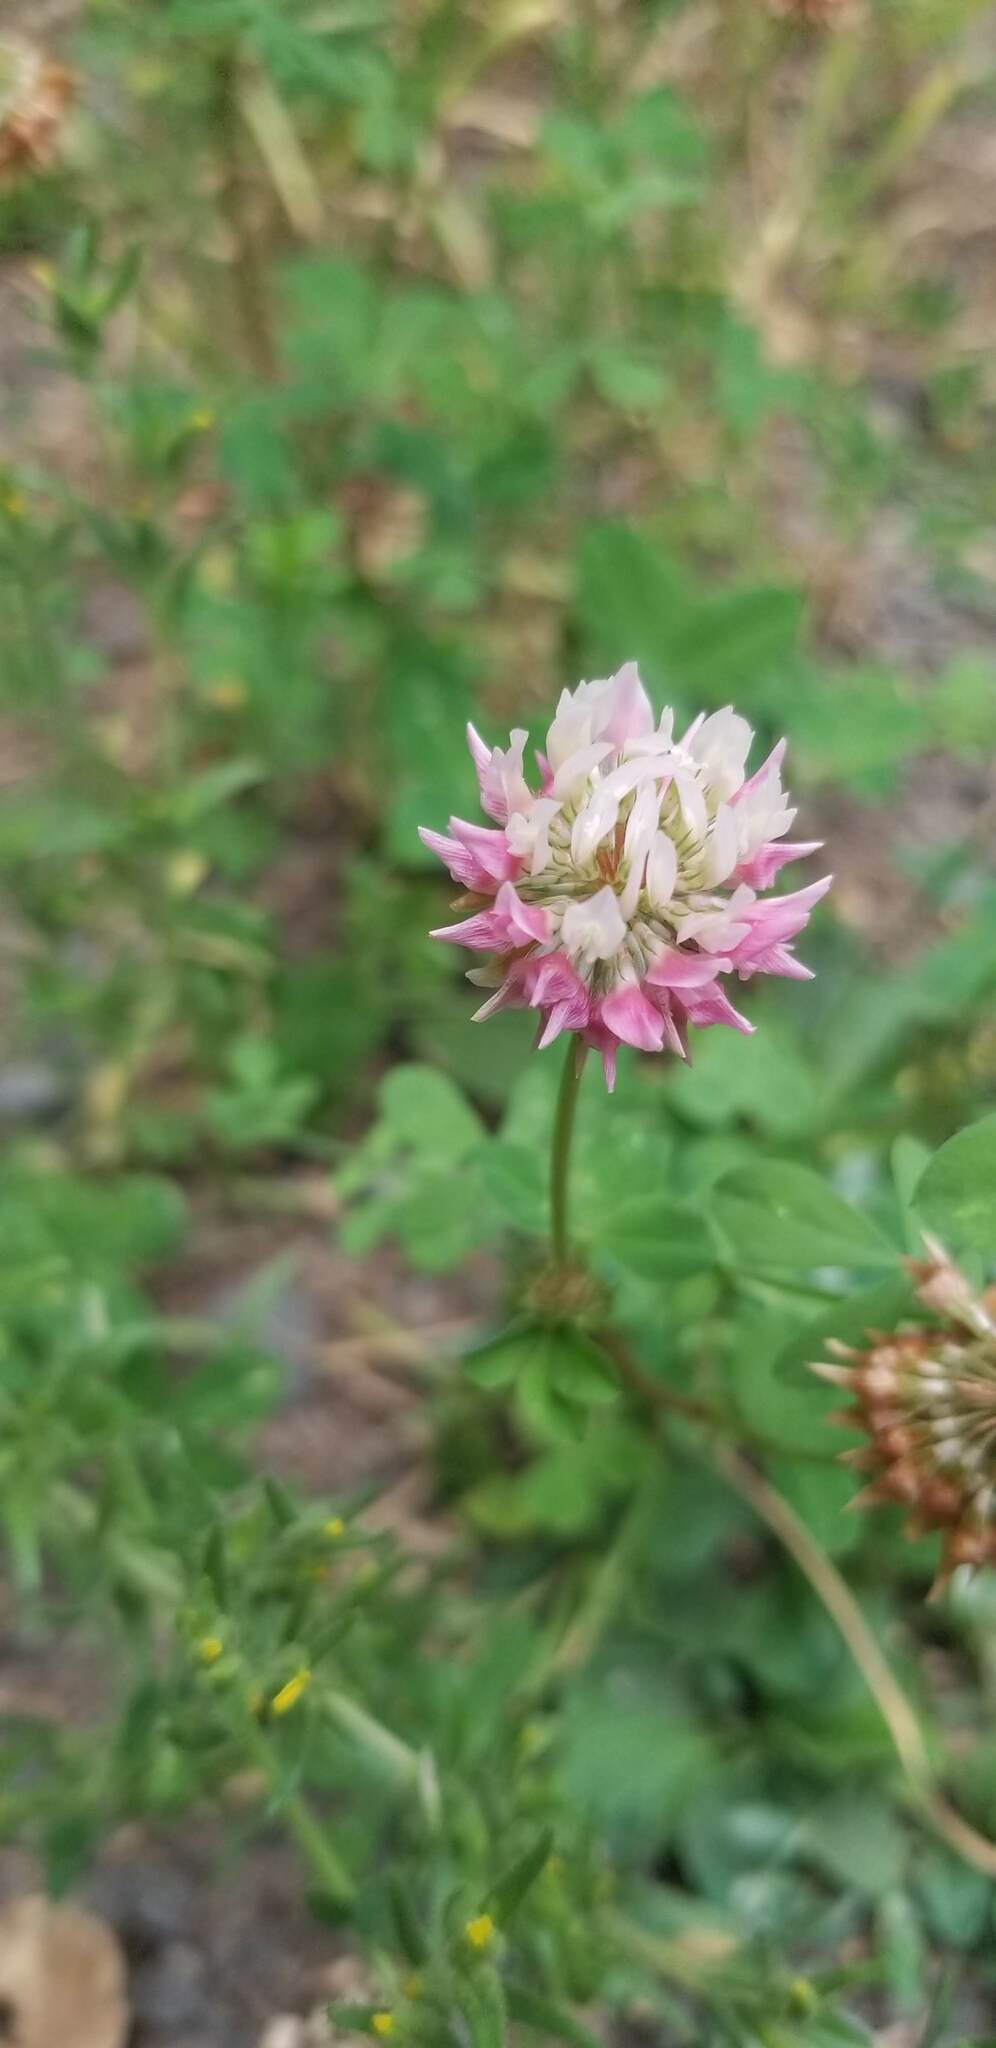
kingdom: Plantae
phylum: Tracheophyta
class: Magnoliopsida
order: Fabales
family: Fabaceae
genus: Trifolium
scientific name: Trifolium hybridum
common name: Alsike clover
